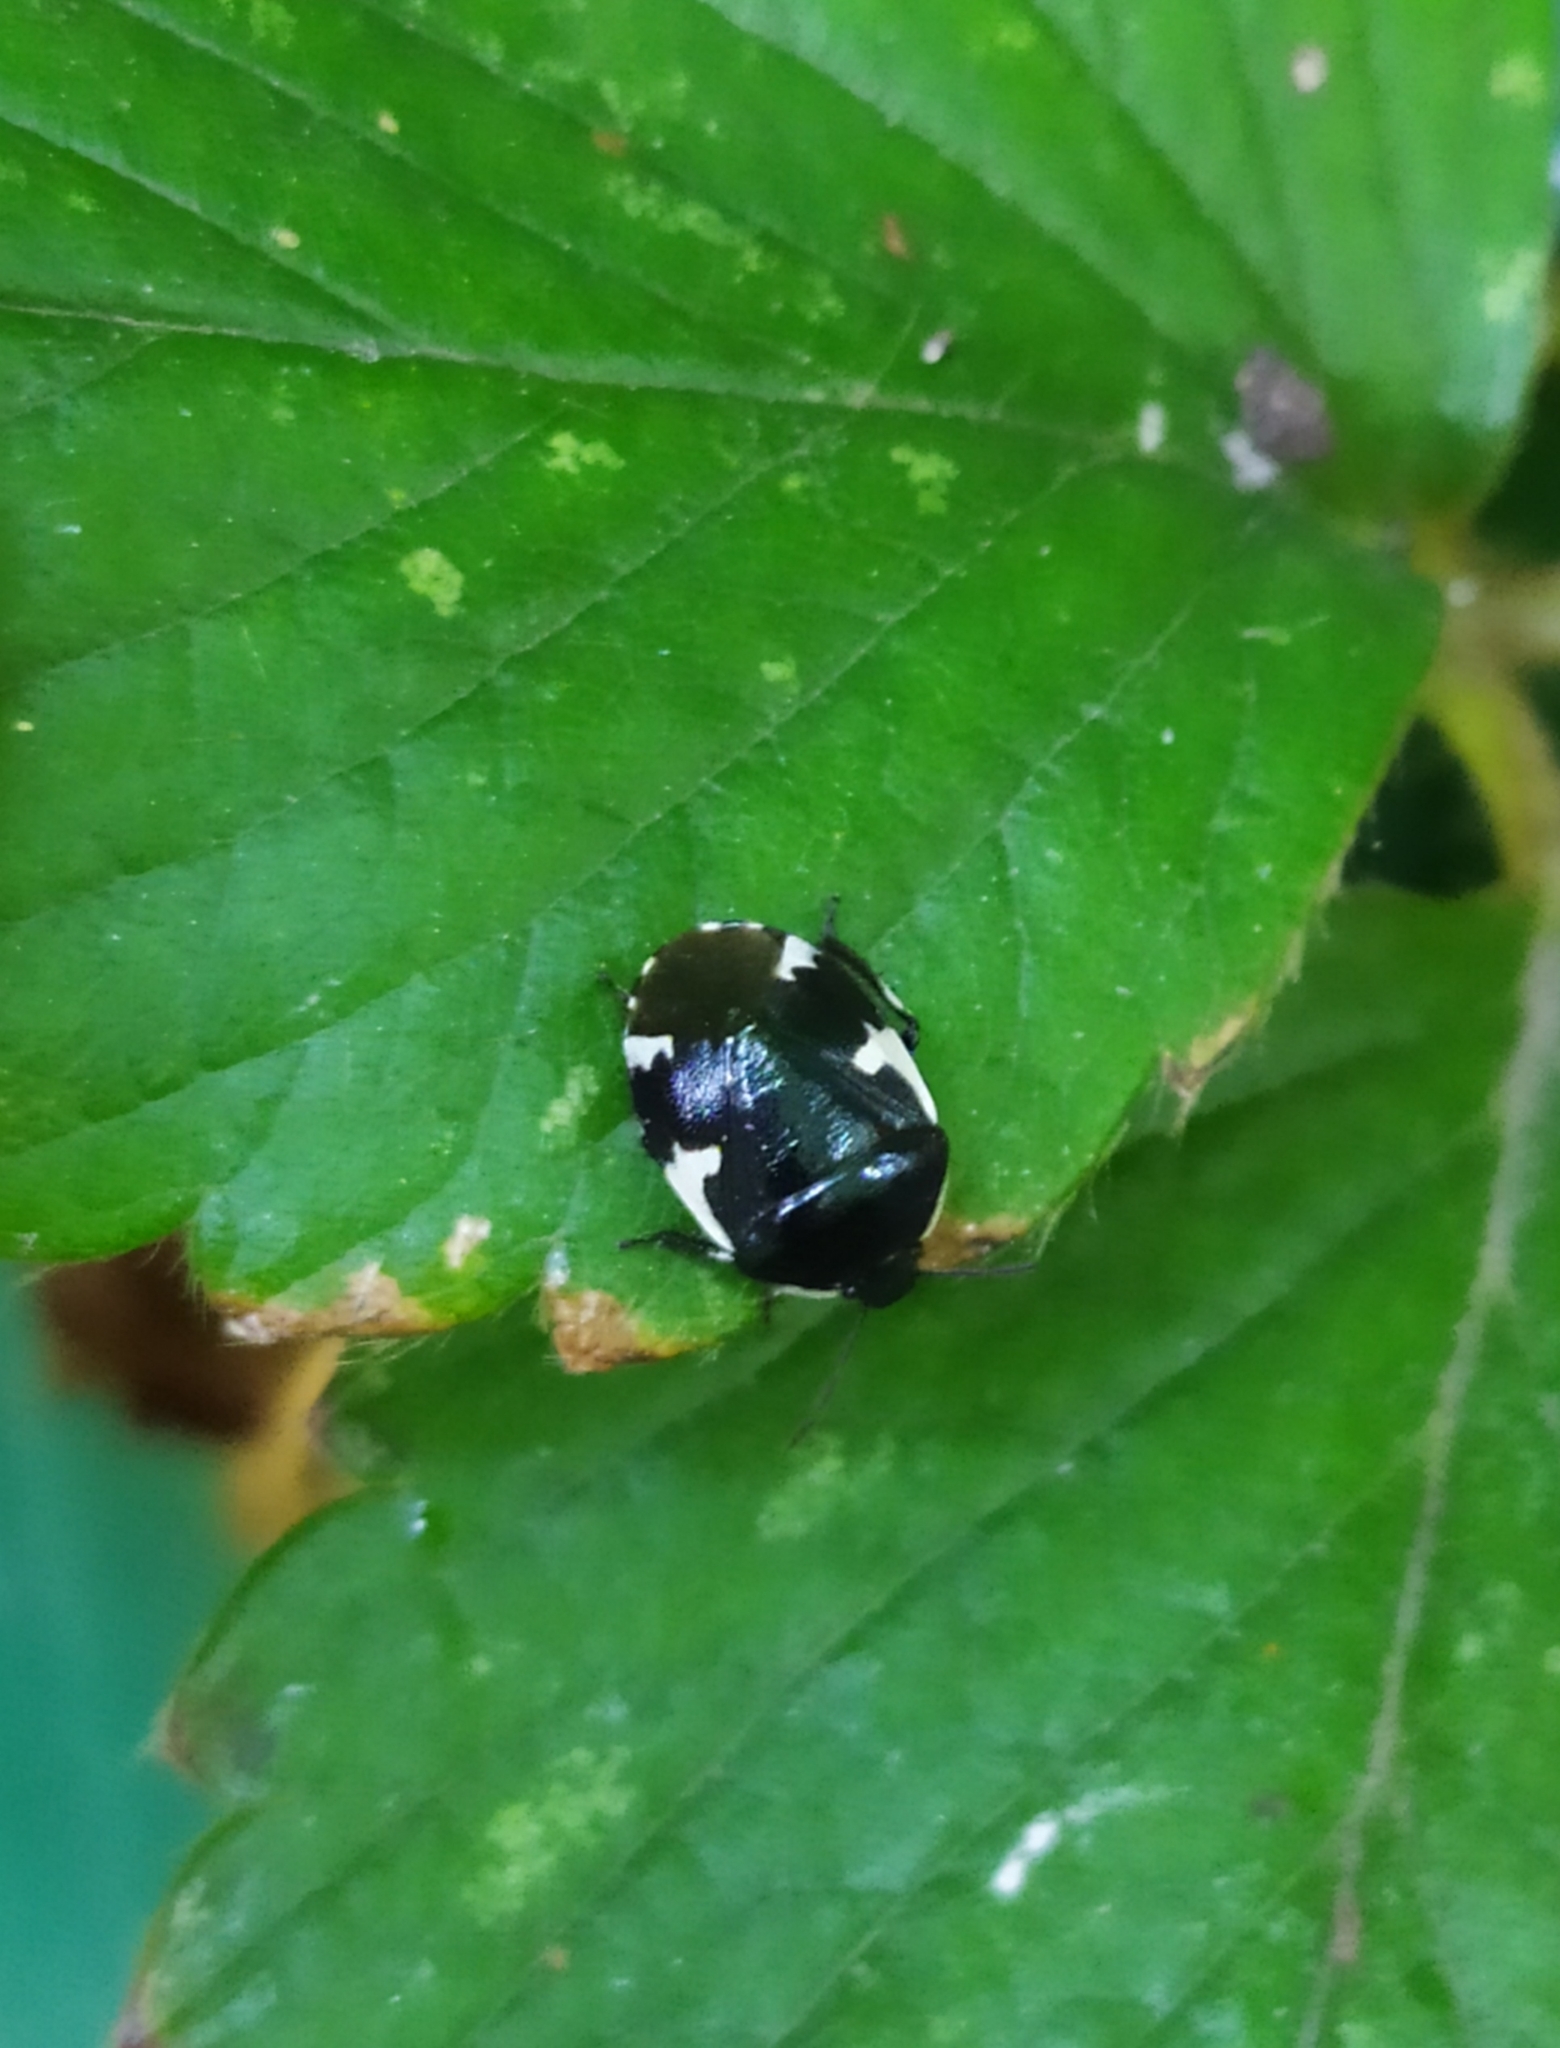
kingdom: Animalia
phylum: Arthropoda
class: Insecta
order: Hemiptera
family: Cydnidae
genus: Tritomegas
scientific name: Tritomegas sexmaculatus
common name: Rambur's pied shieldbug
